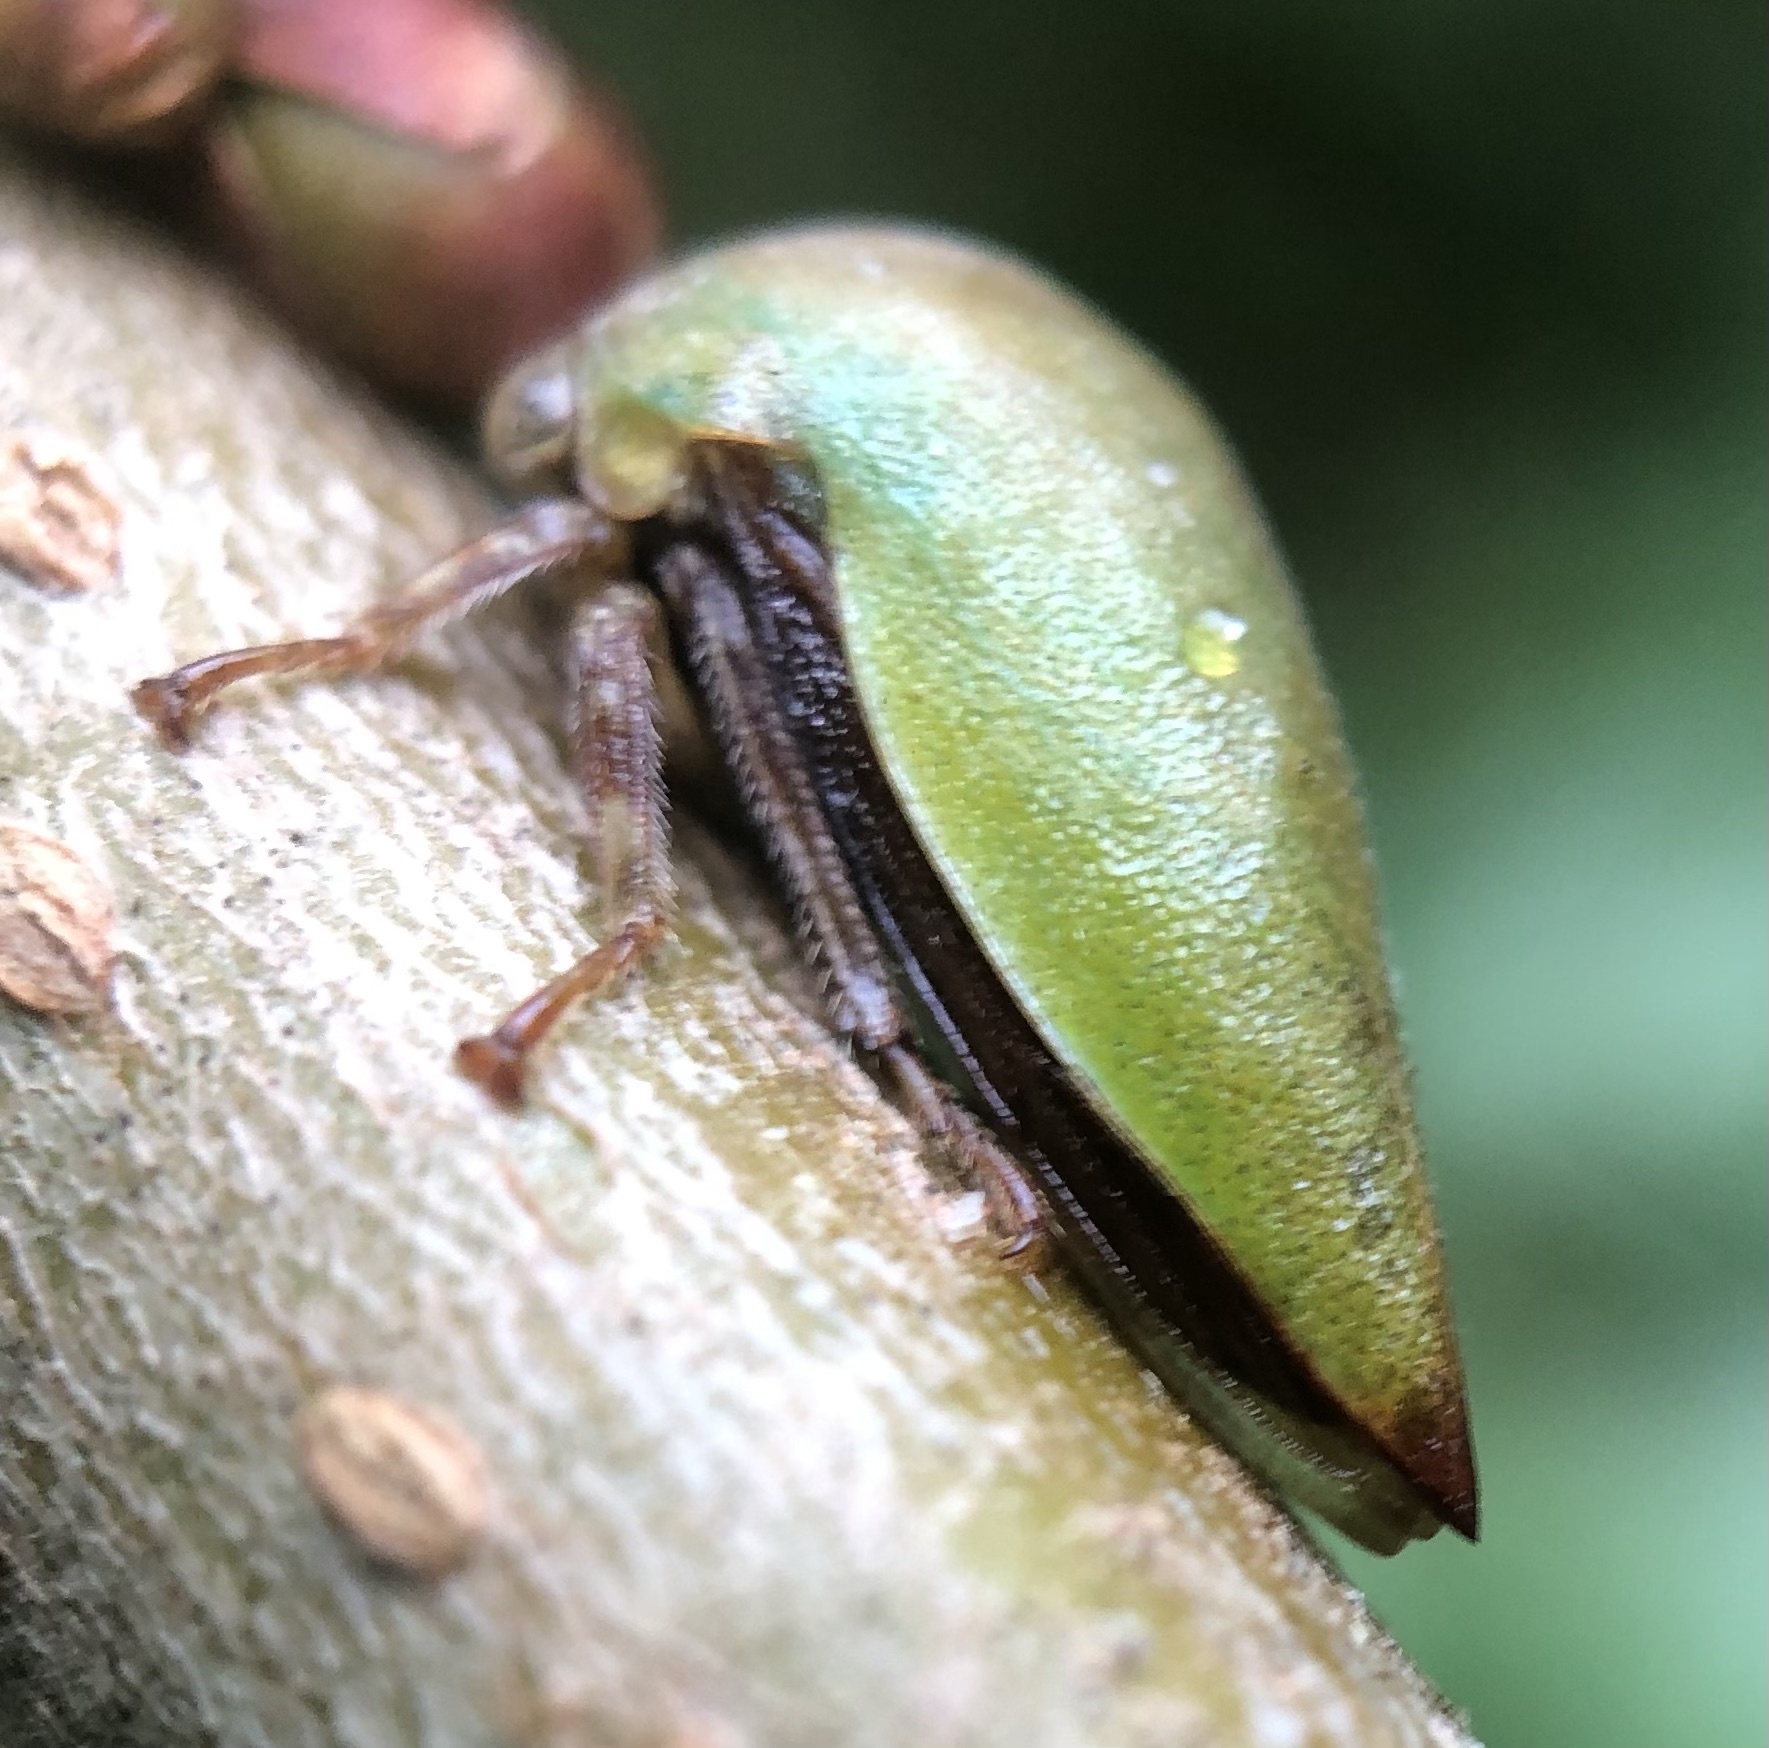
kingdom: Animalia
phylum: Arthropoda
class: Insecta
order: Hemiptera
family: Membracidae
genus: Hebetica
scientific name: Hebetica
